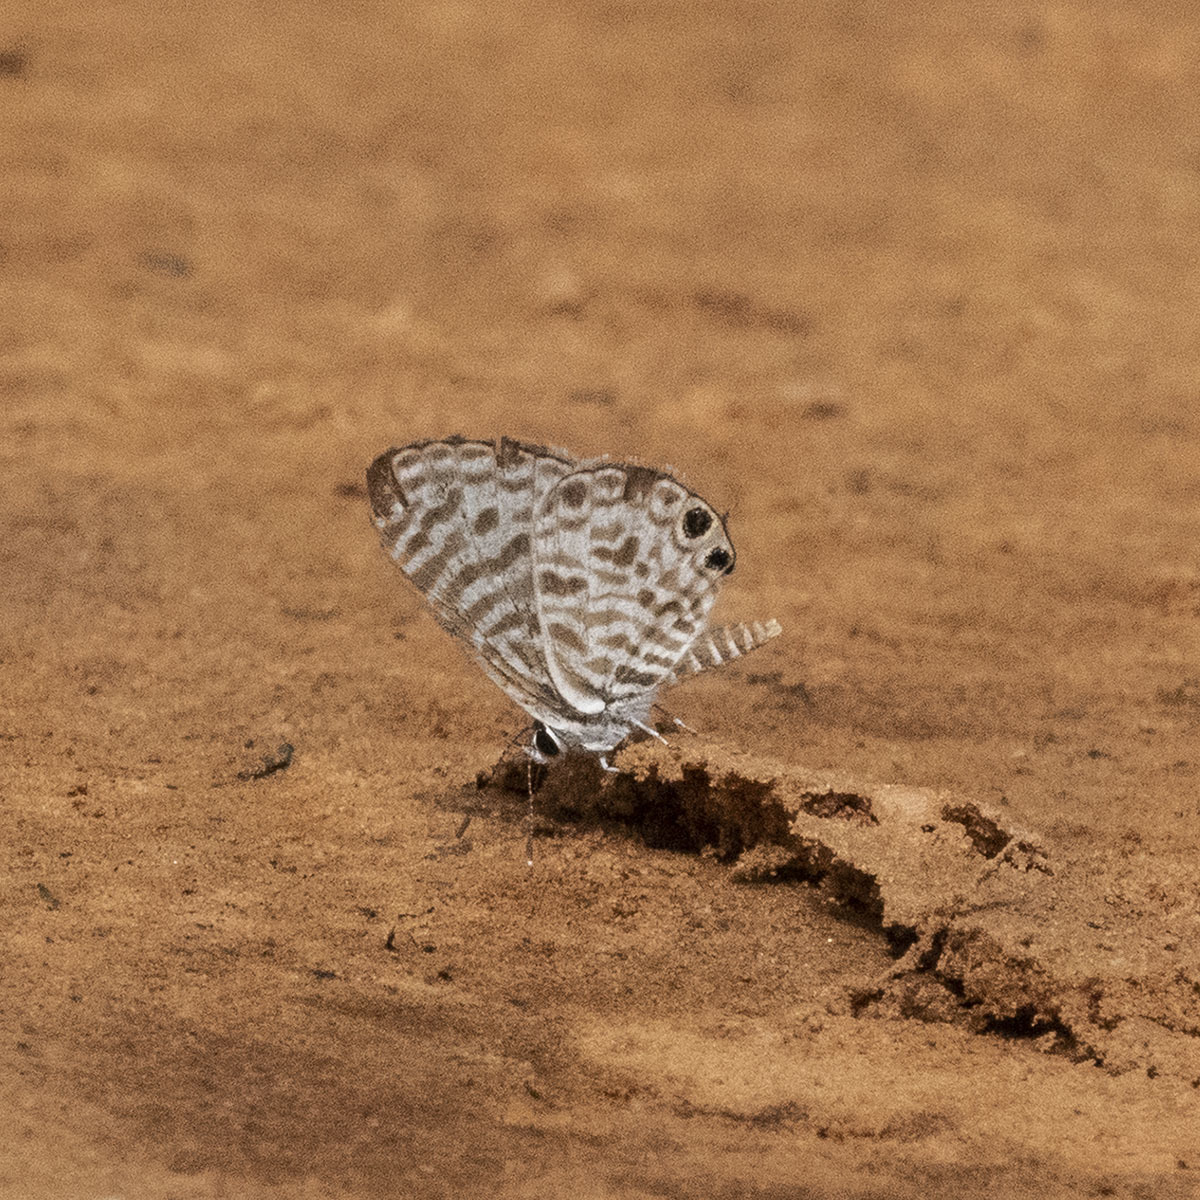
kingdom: Animalia
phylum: Arthropoda
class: Insecta
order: Lepidoptera
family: Lycaenidae
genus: Leptotes
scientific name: Leptotes plinius
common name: Zebra blue
